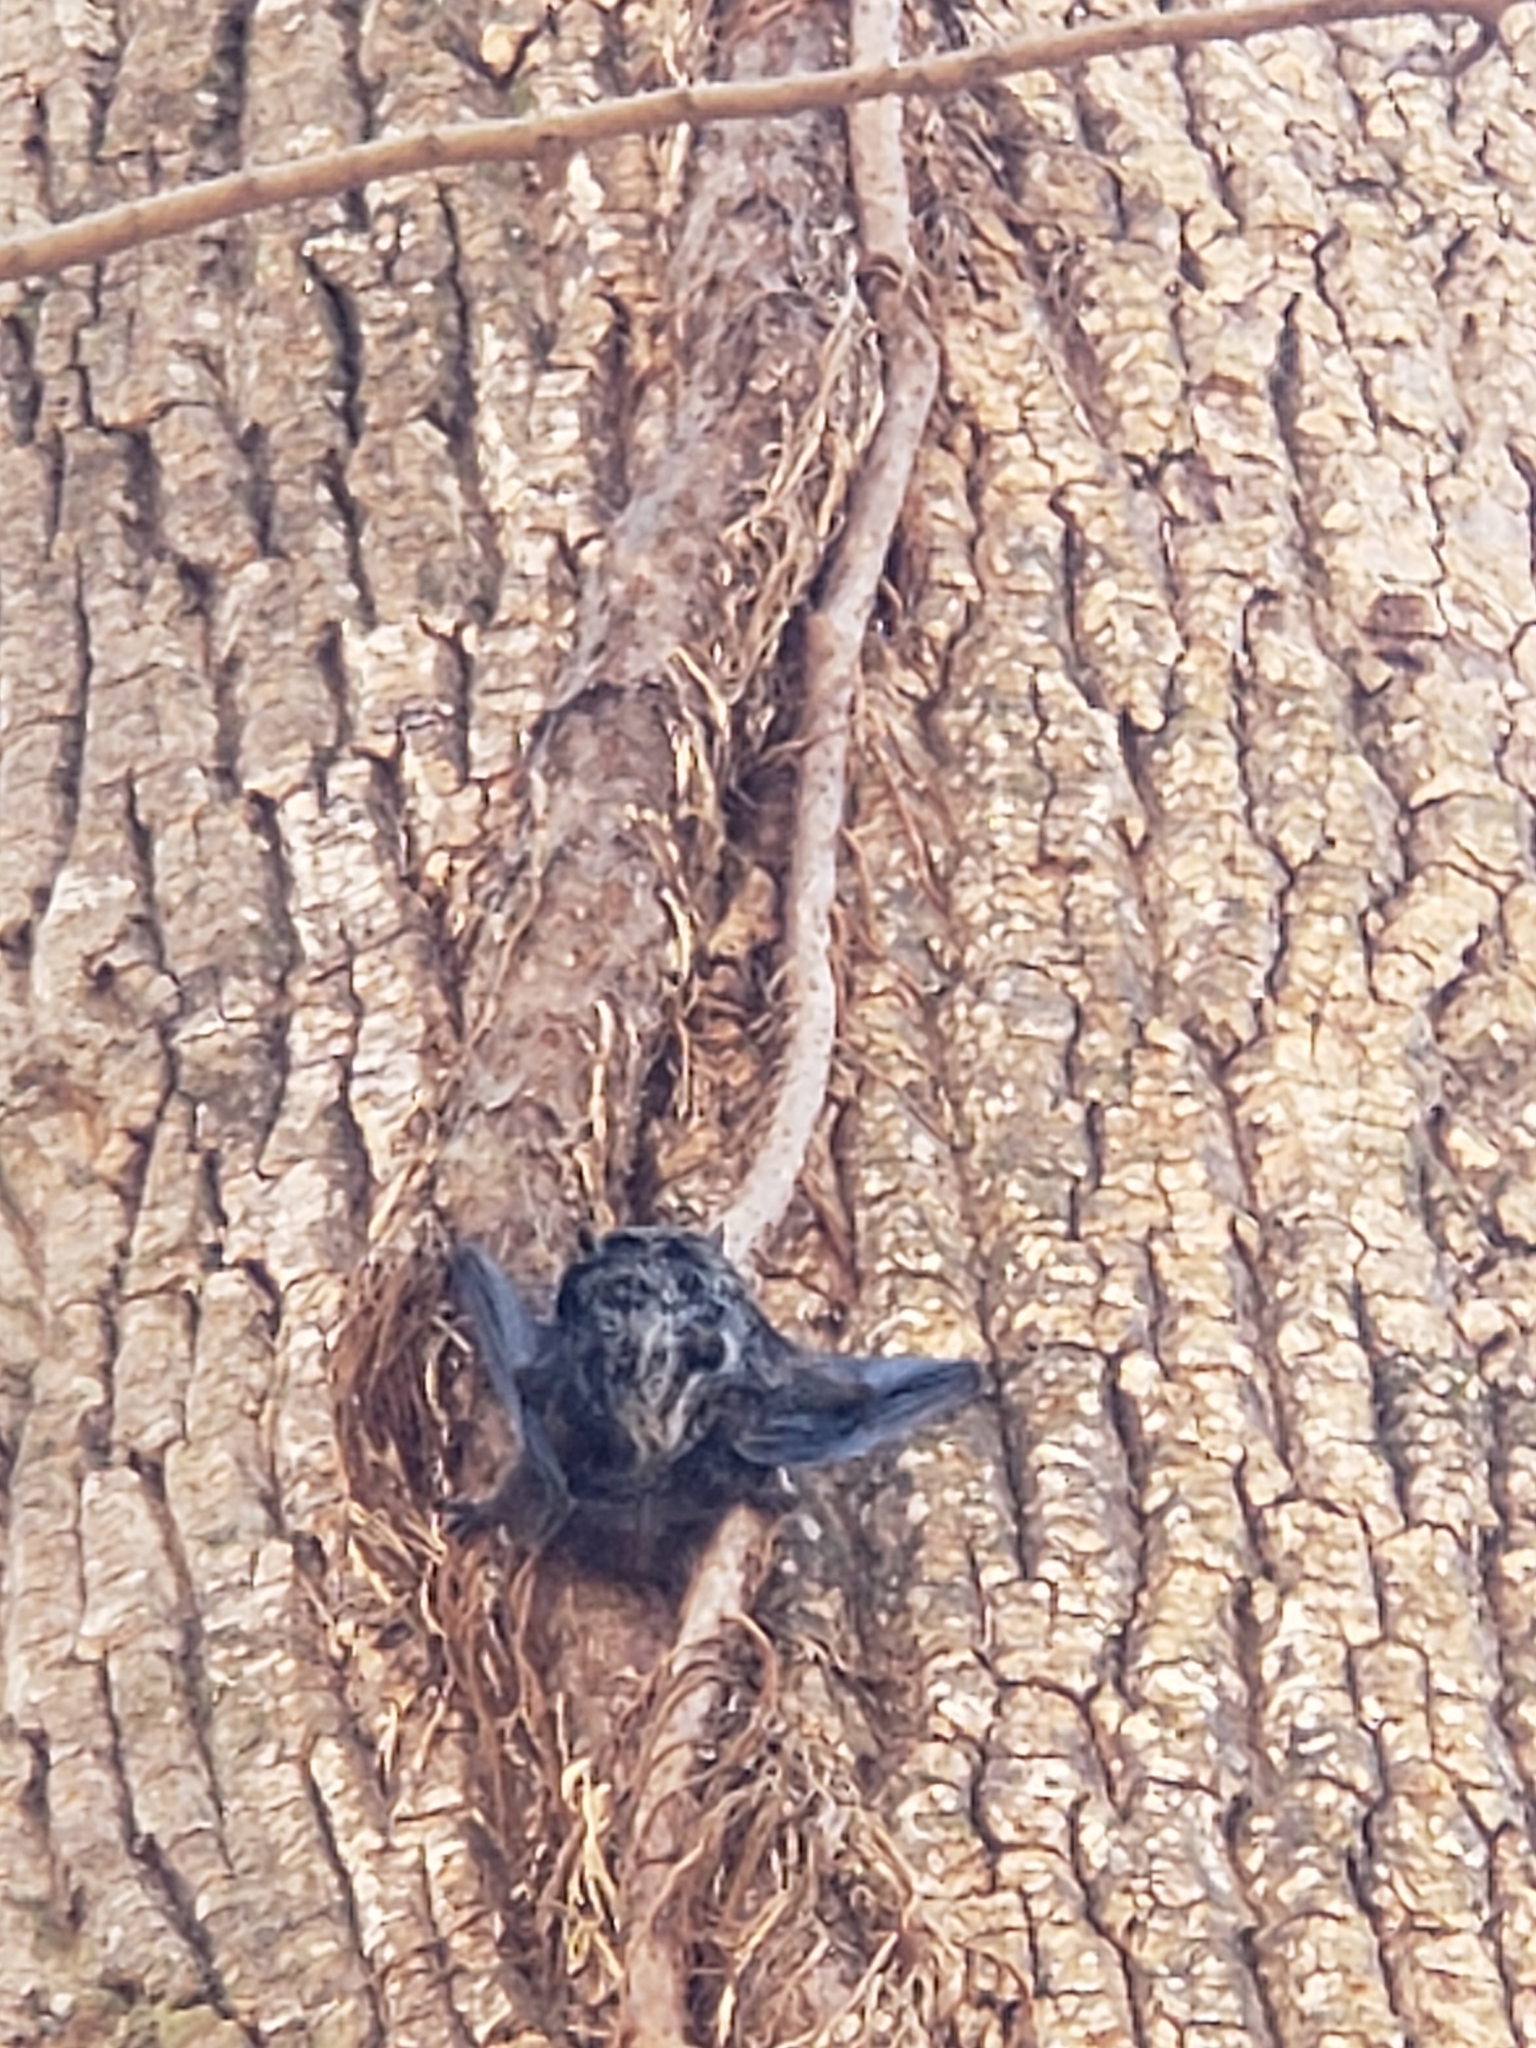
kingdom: Animalia
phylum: Chordata
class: Mammalia
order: Chiroptera
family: Vespertilionidae
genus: Lasionycteris
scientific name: Lasionycteris noctivagans
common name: Silver-haired bat
